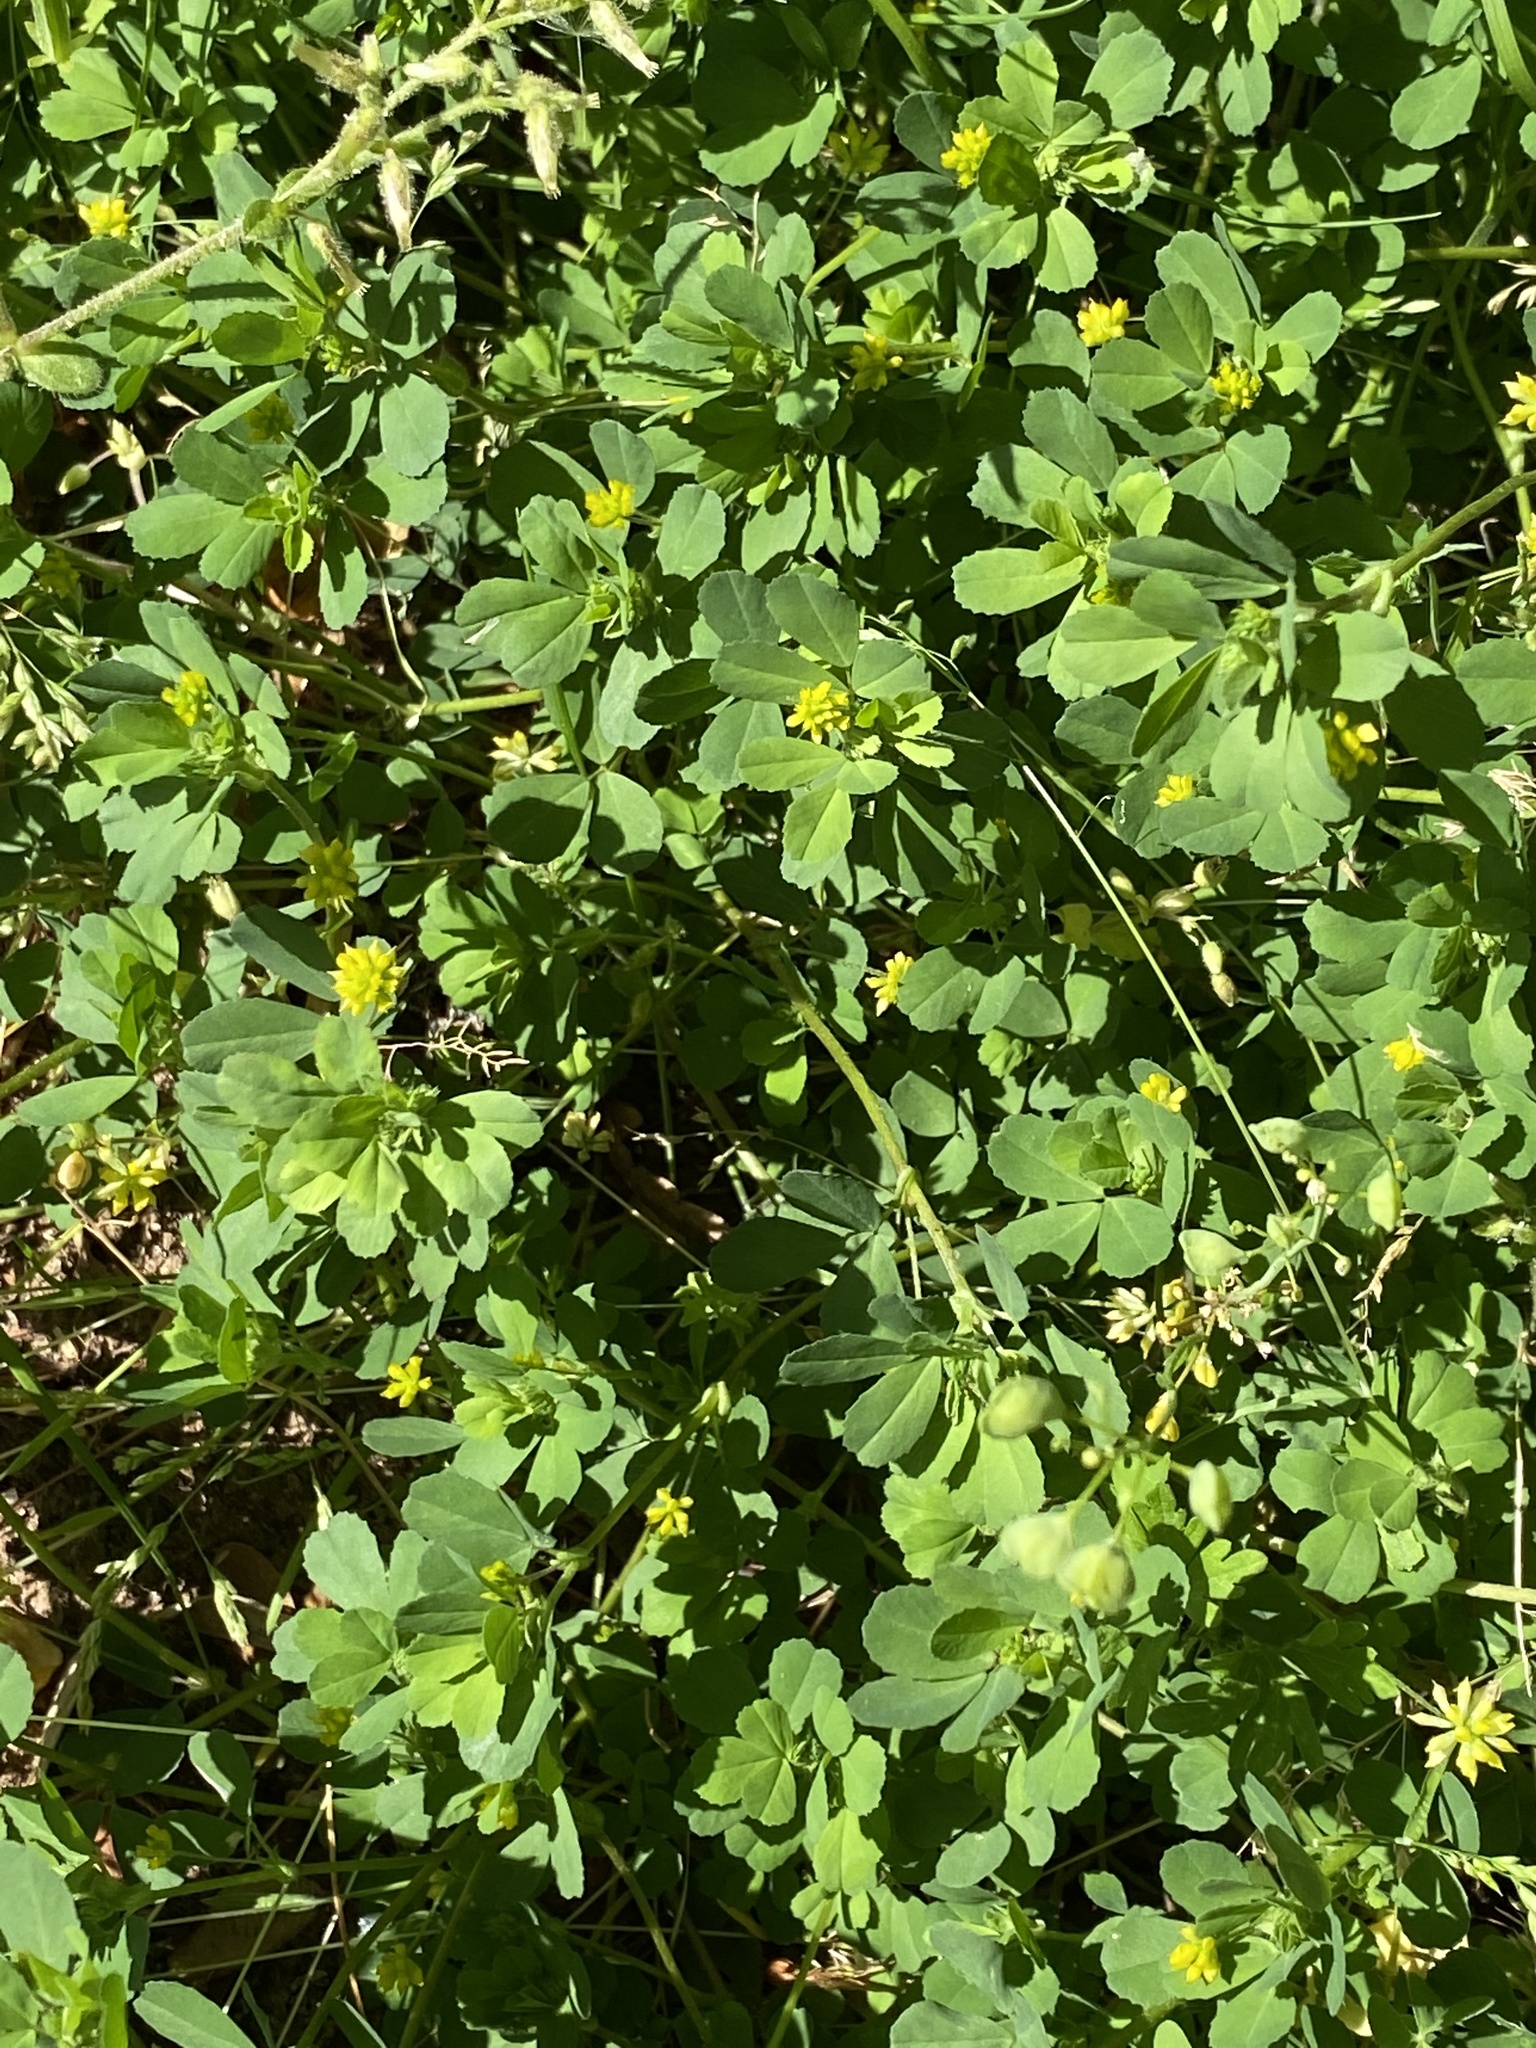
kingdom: Plantae
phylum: Tracheophyta
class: Magnoliopsida
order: Fabales
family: Fabaceae
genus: Trifolium
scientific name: Trifolium dubium
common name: Suckling clover
